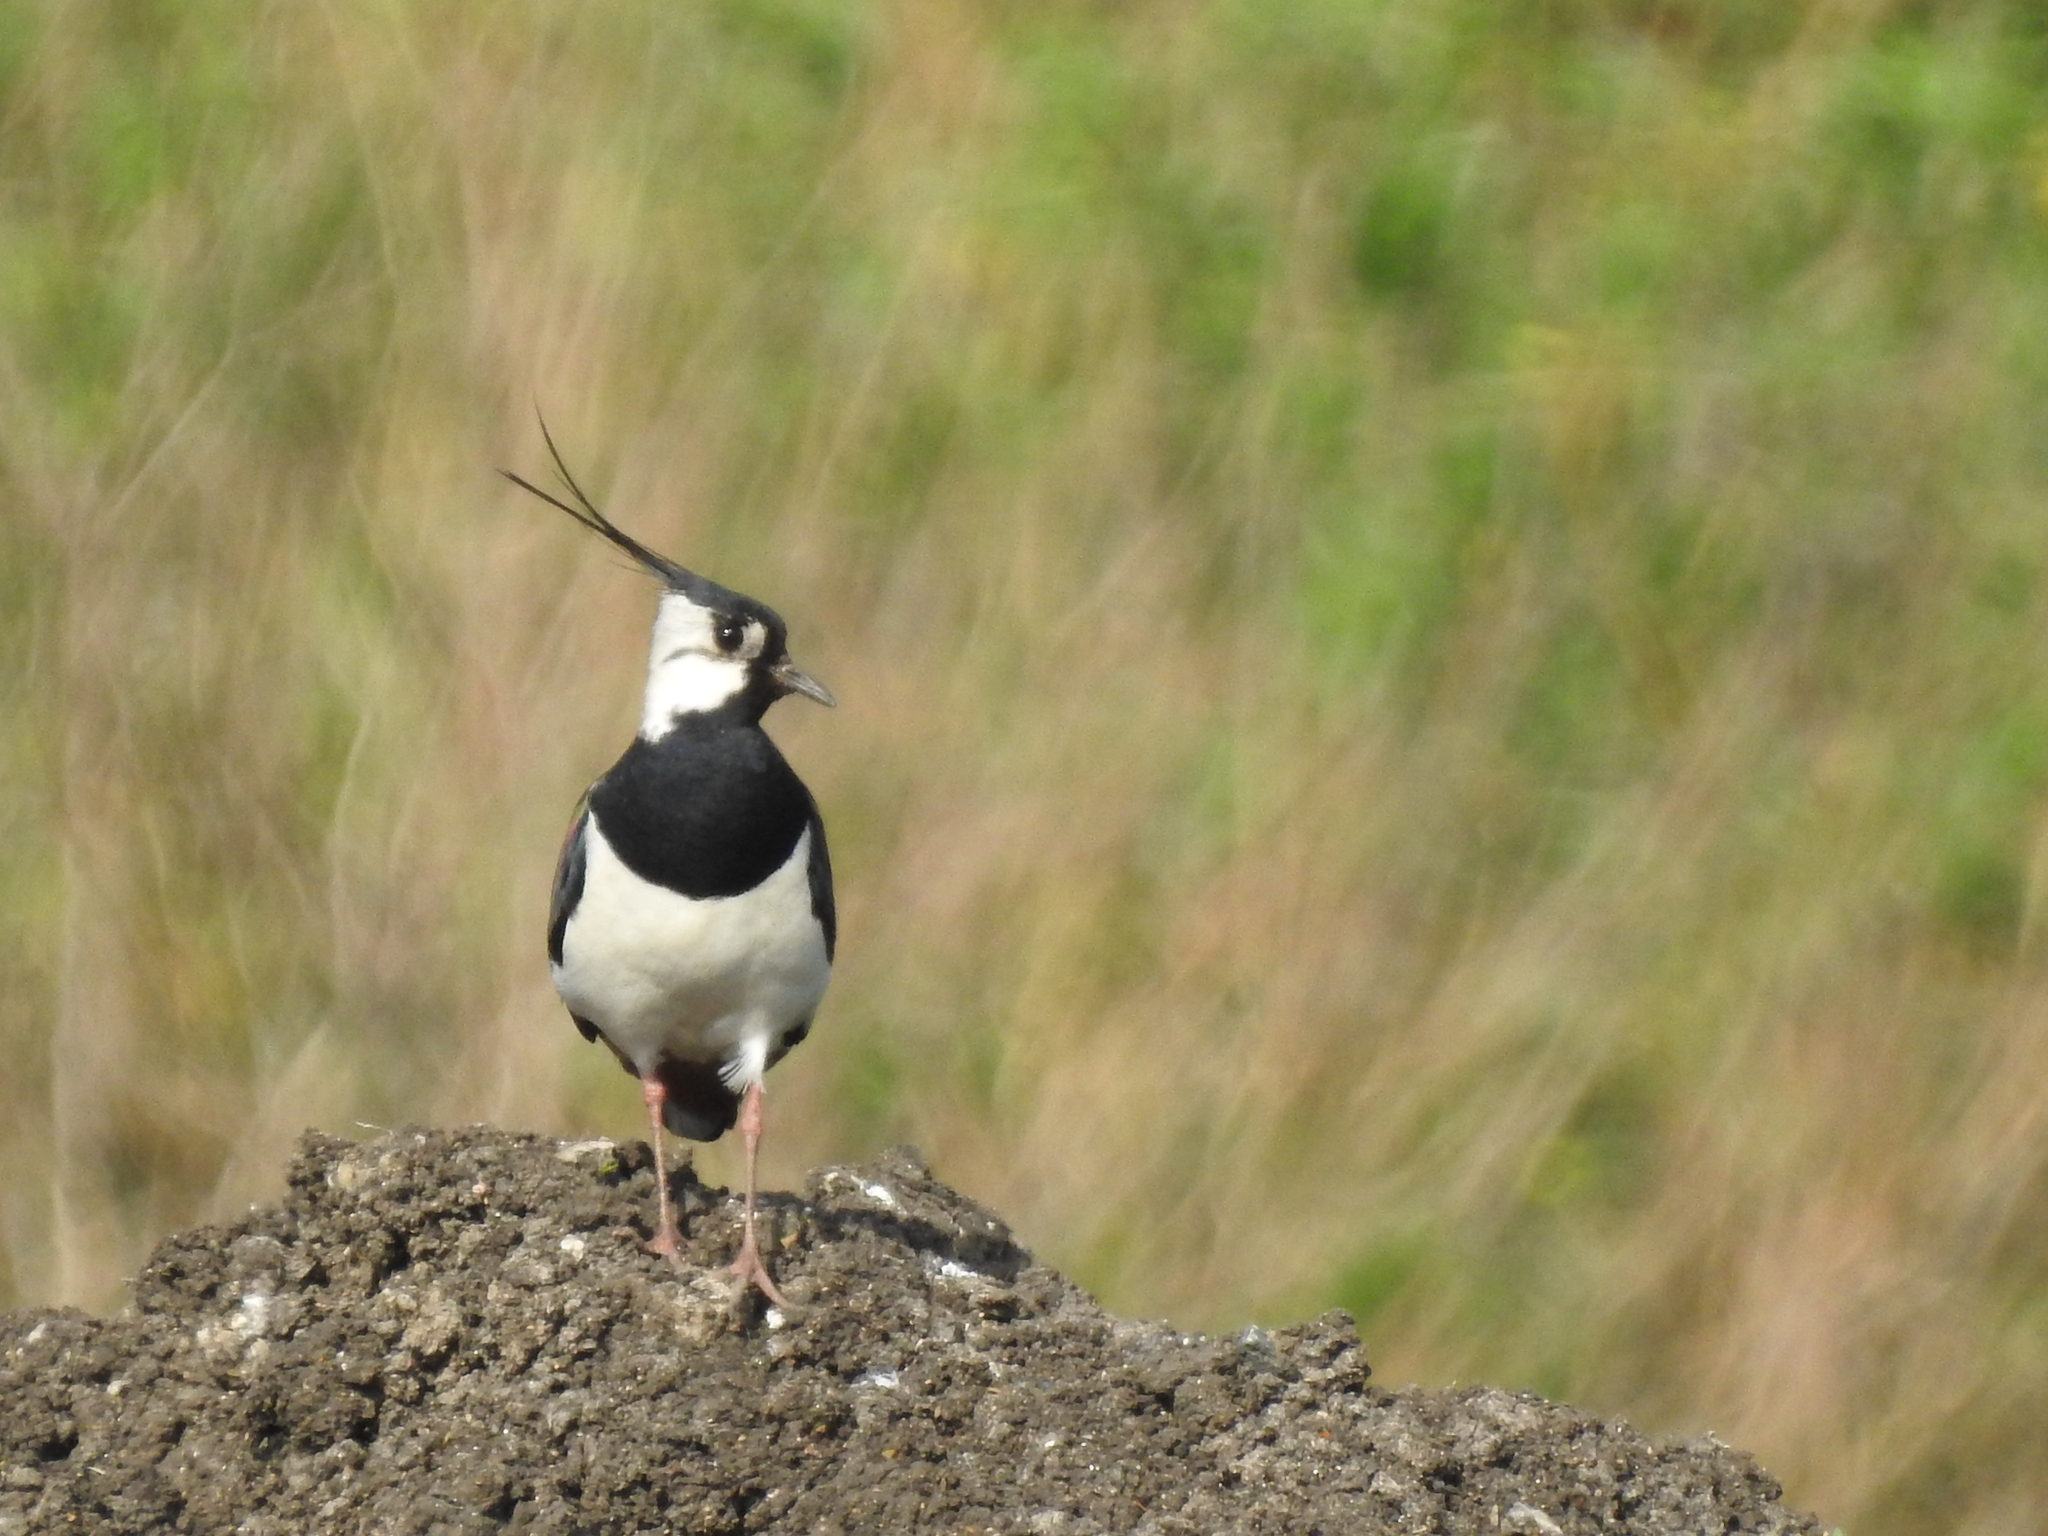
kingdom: Animalia
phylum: Chordata
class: Aves
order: Charadriiformes
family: Charadriidae
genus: Vanellus
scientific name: Vanellus vanellus
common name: Northern lapwing
